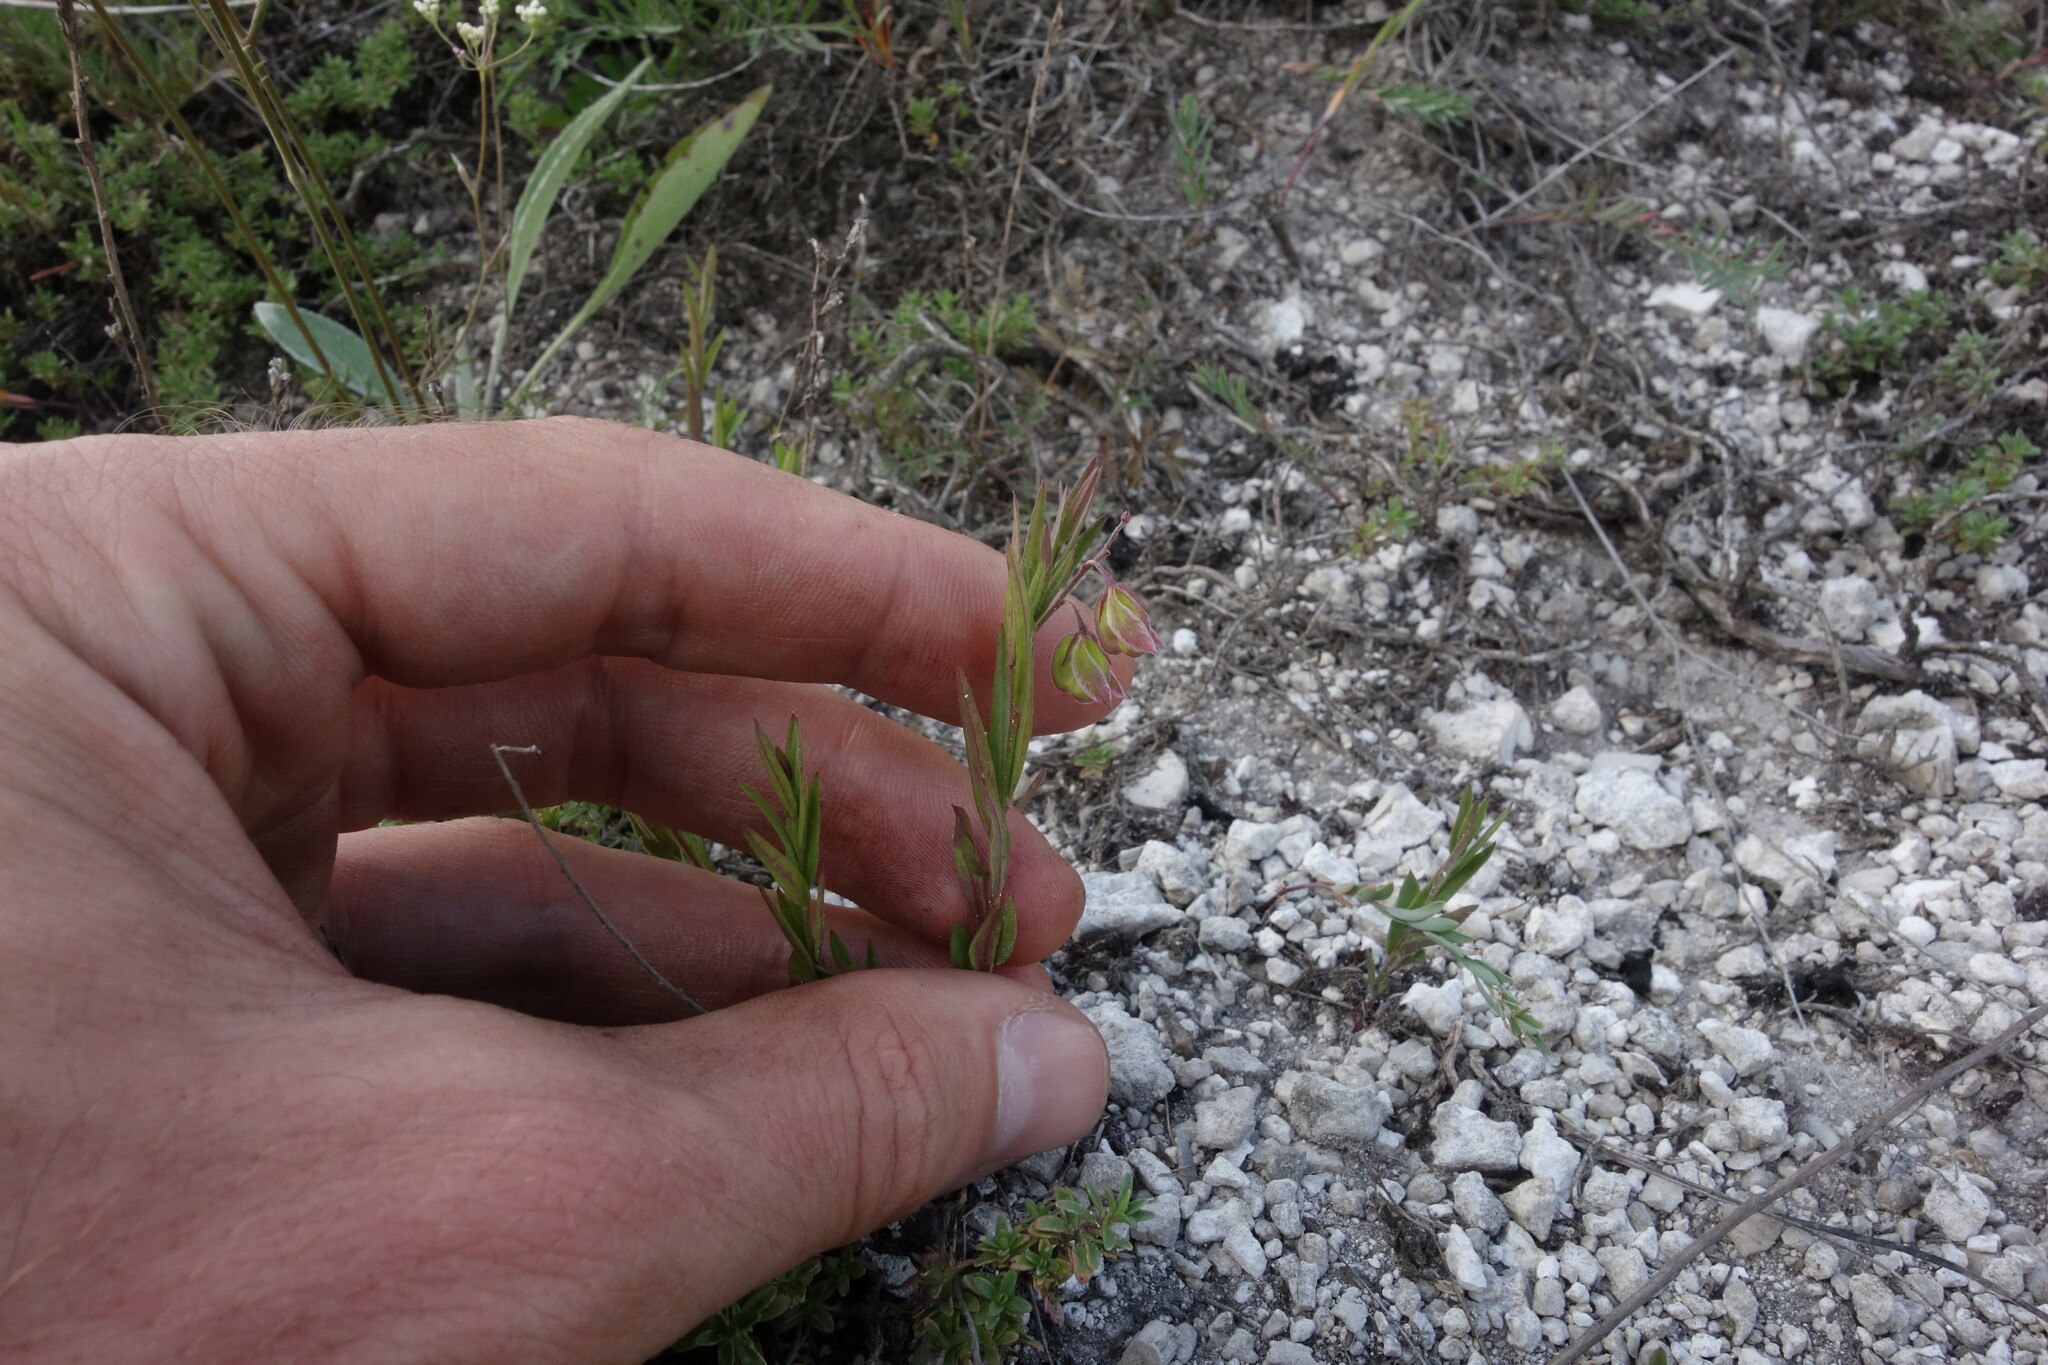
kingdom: Plantae
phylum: Tracheophyta
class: Magnoliopsida
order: Fabales
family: Polygalaceae
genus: Polygala
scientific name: Polygala sibirica
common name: Siberian polygala
